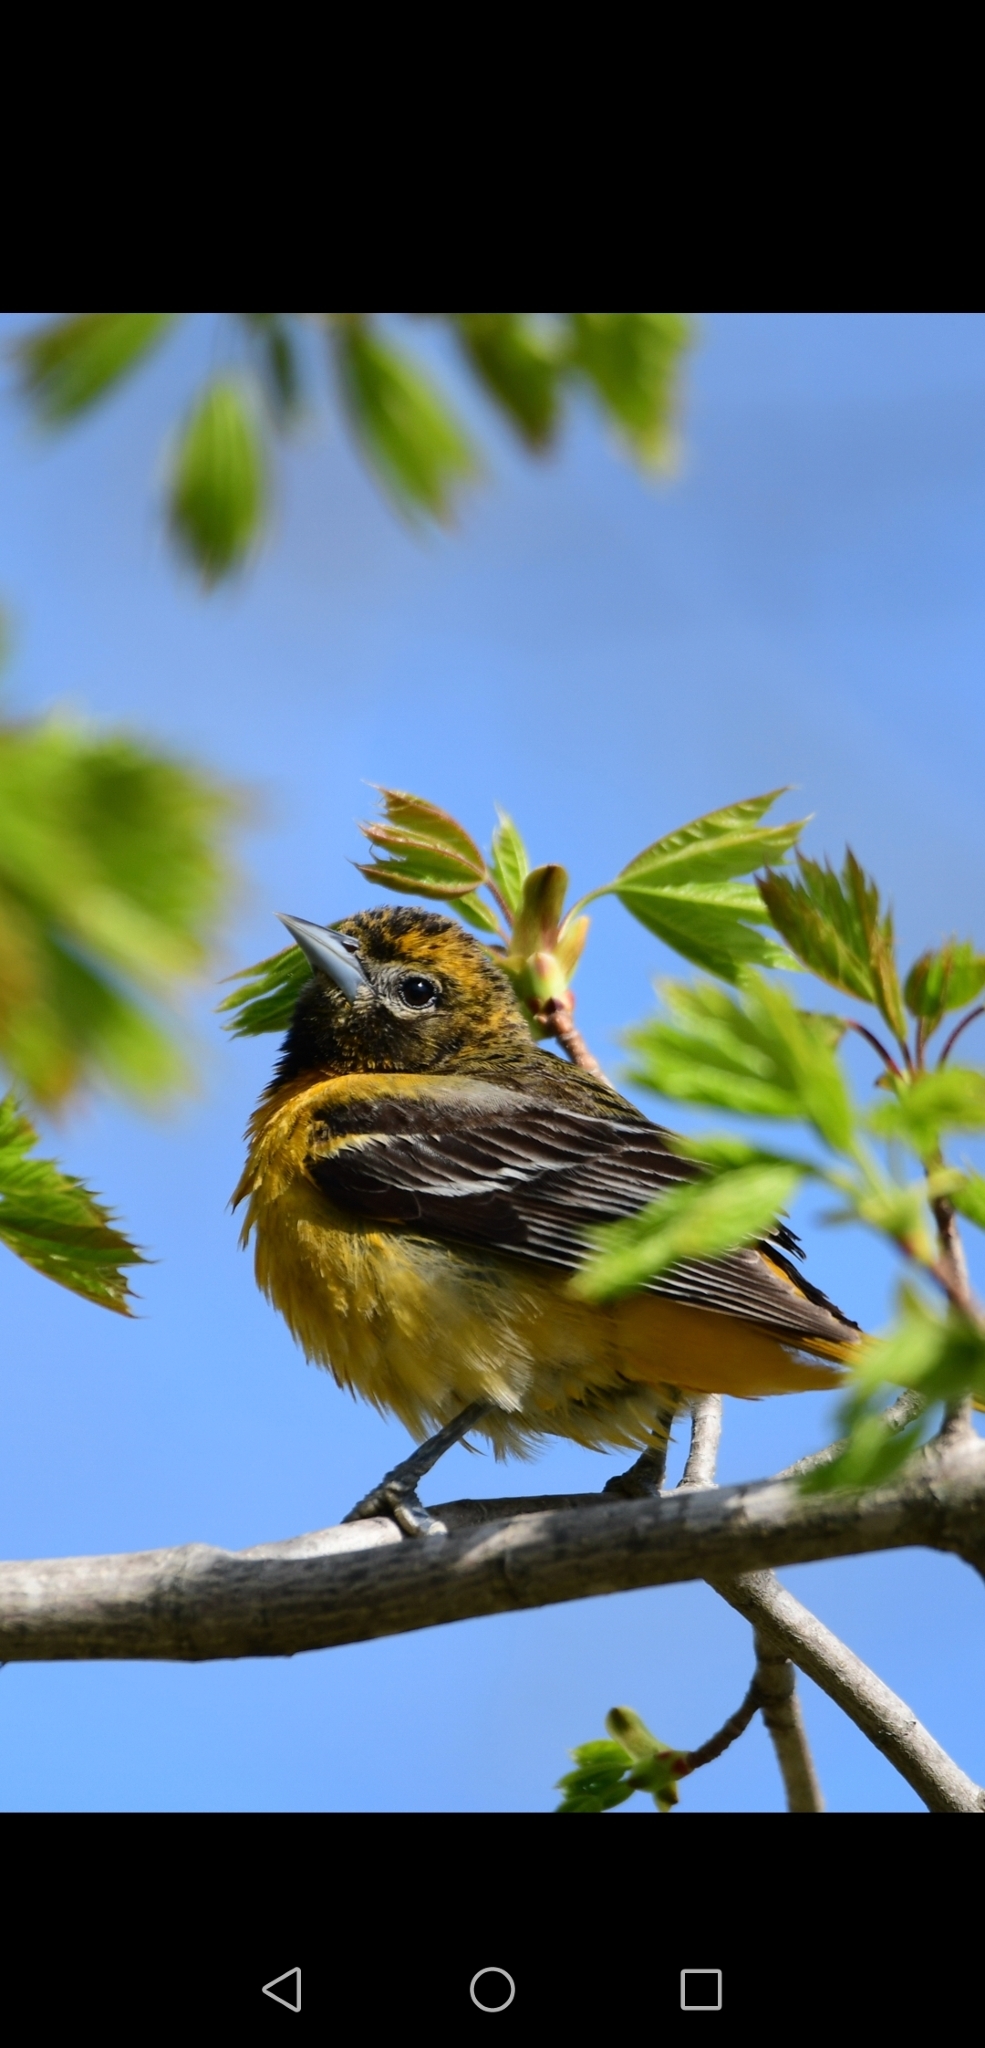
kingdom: Animalia
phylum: Chordata
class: Aves
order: Passeriformes
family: Icteridae
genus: Icterus
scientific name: Icterus galbula
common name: Baltimore oriole
